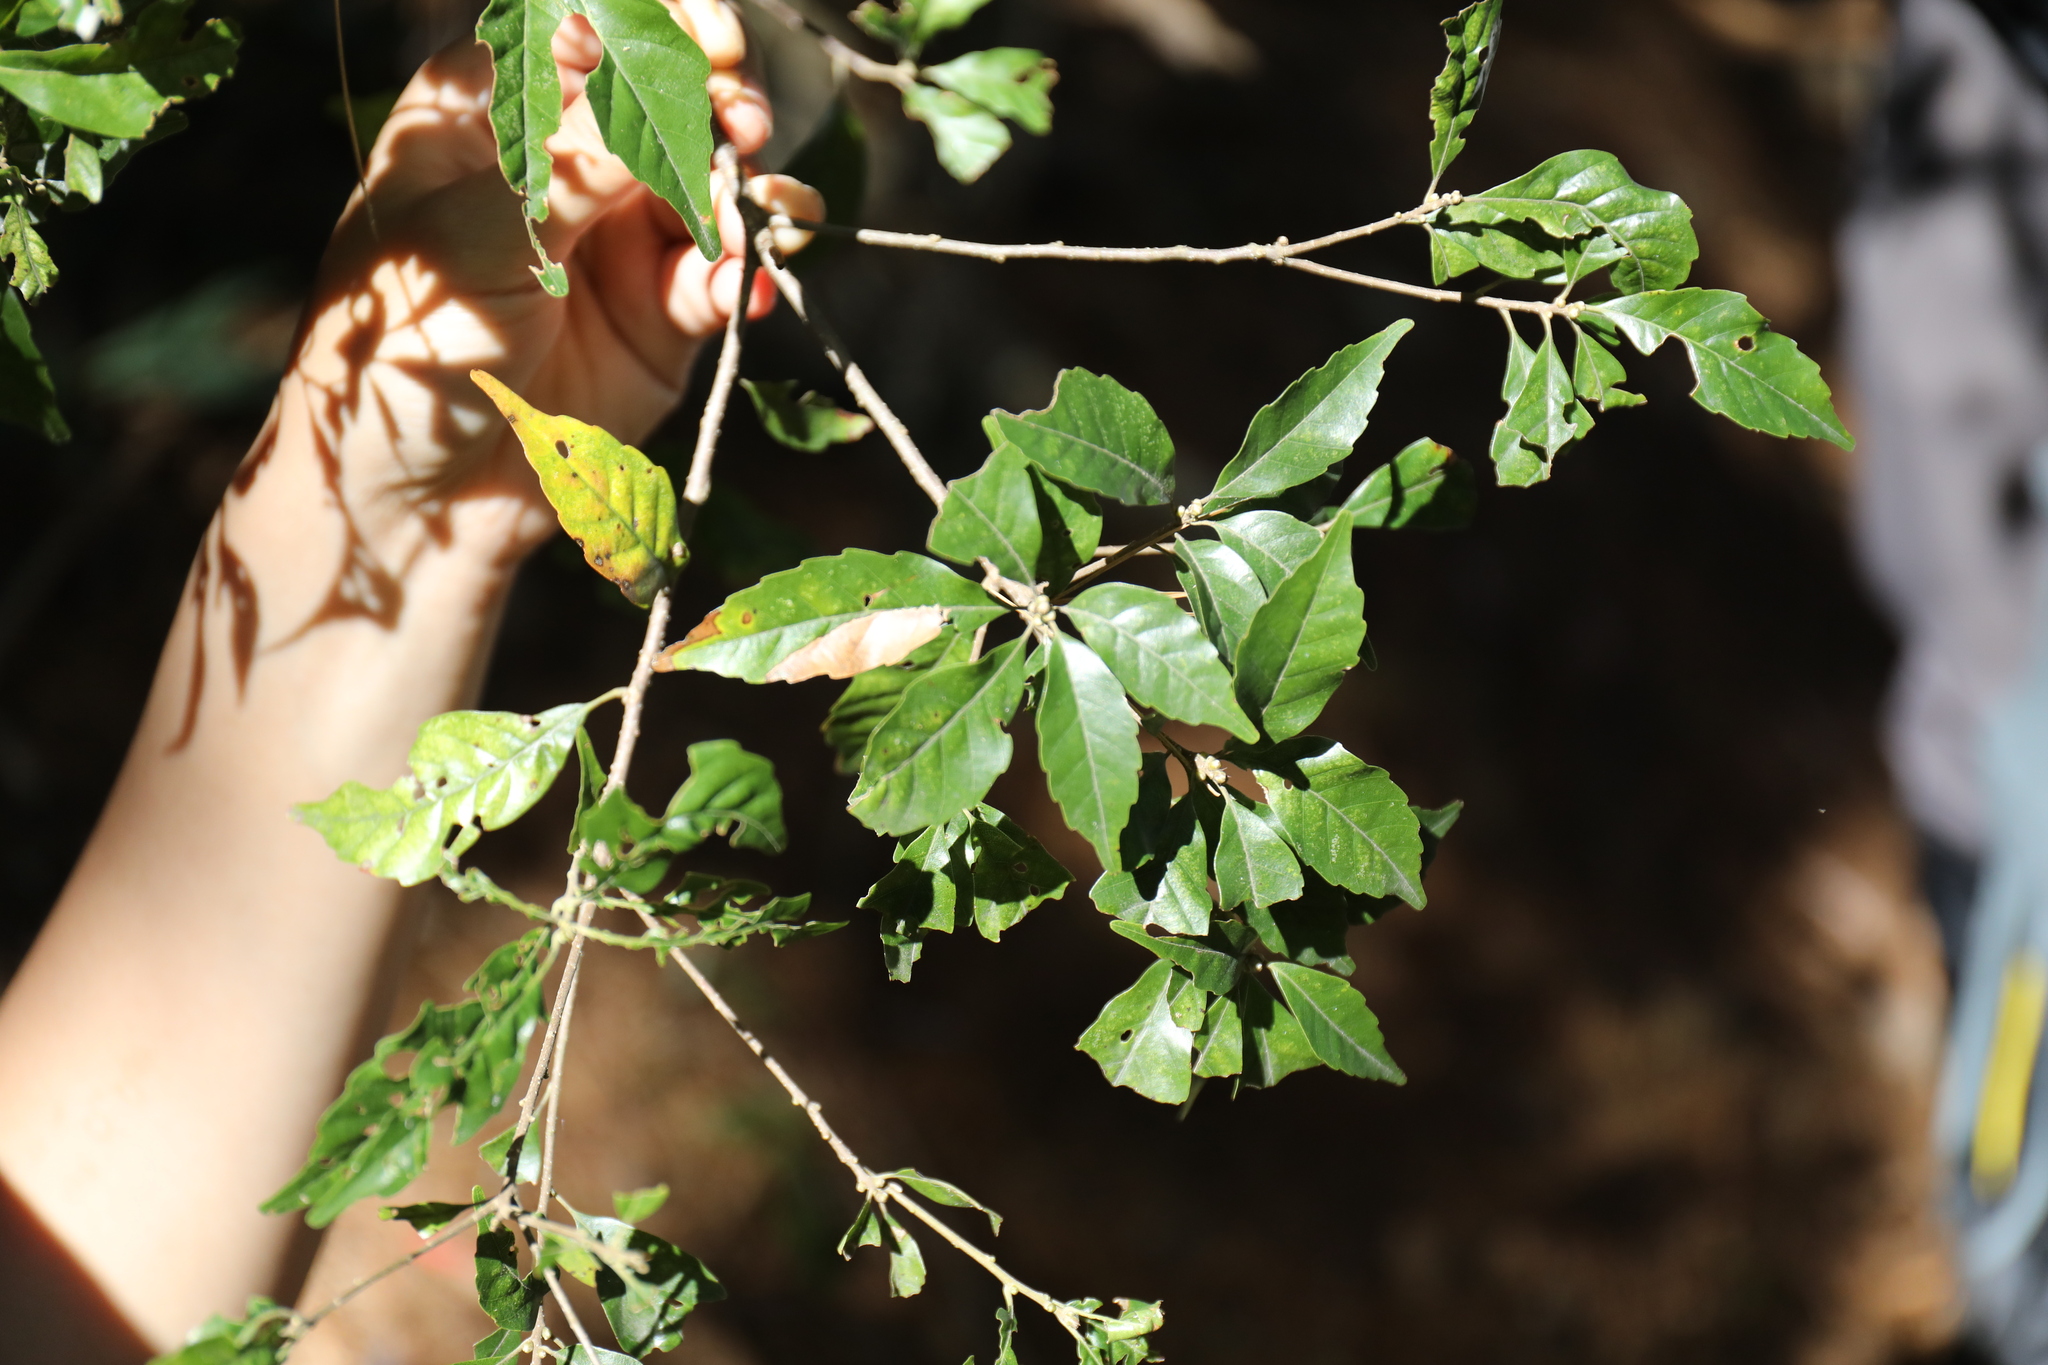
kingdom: Plantae
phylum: Tracheophyta
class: Magnoliopsida
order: Fagales
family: Fagaceae
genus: Lithocarpus
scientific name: Lithocarpus konishii
